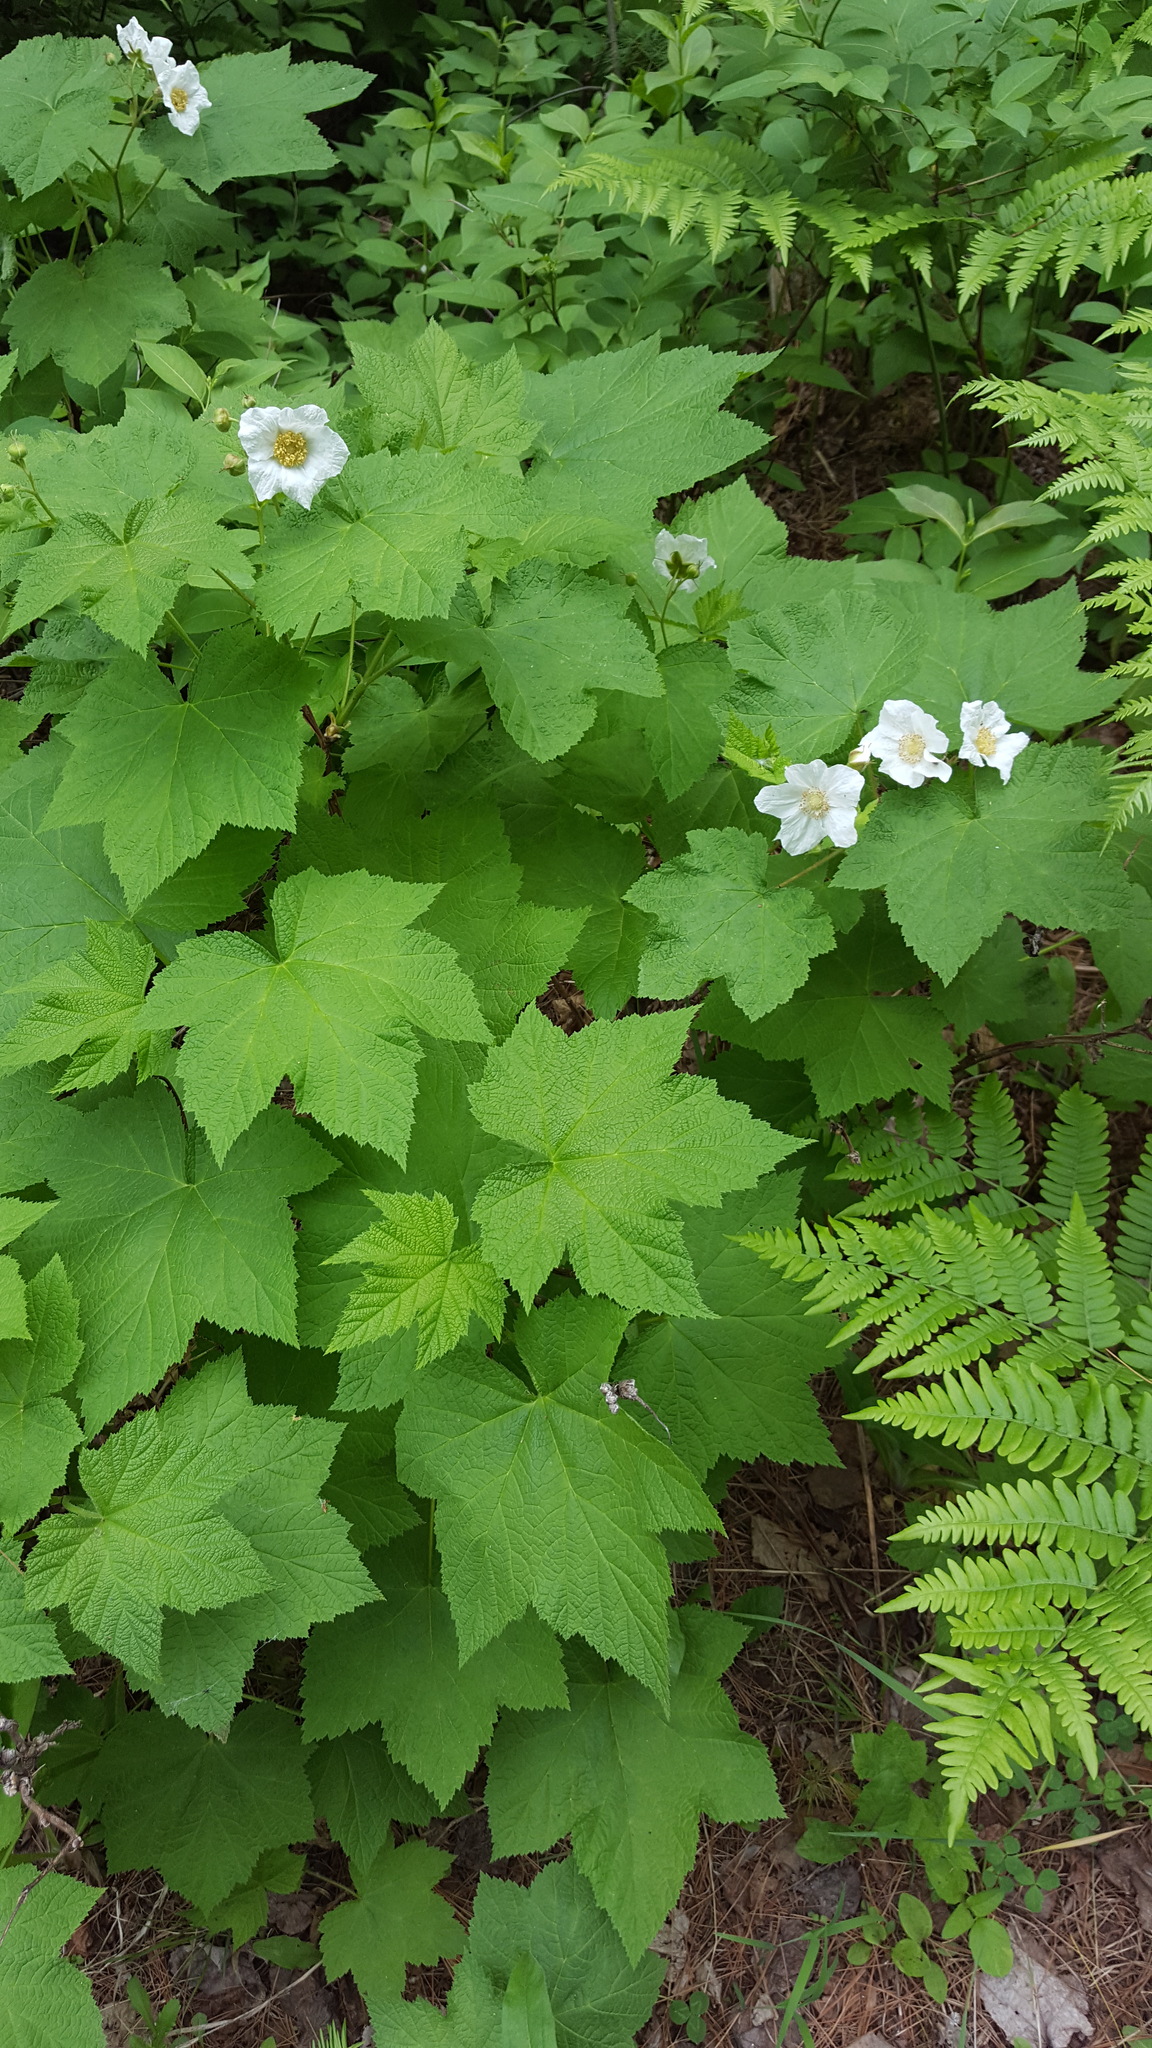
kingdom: Plantae
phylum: Tracheophyta
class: Magnoliopsida
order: Rosales
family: Rosaceae
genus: Rubus
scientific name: Rubus parviflorus
